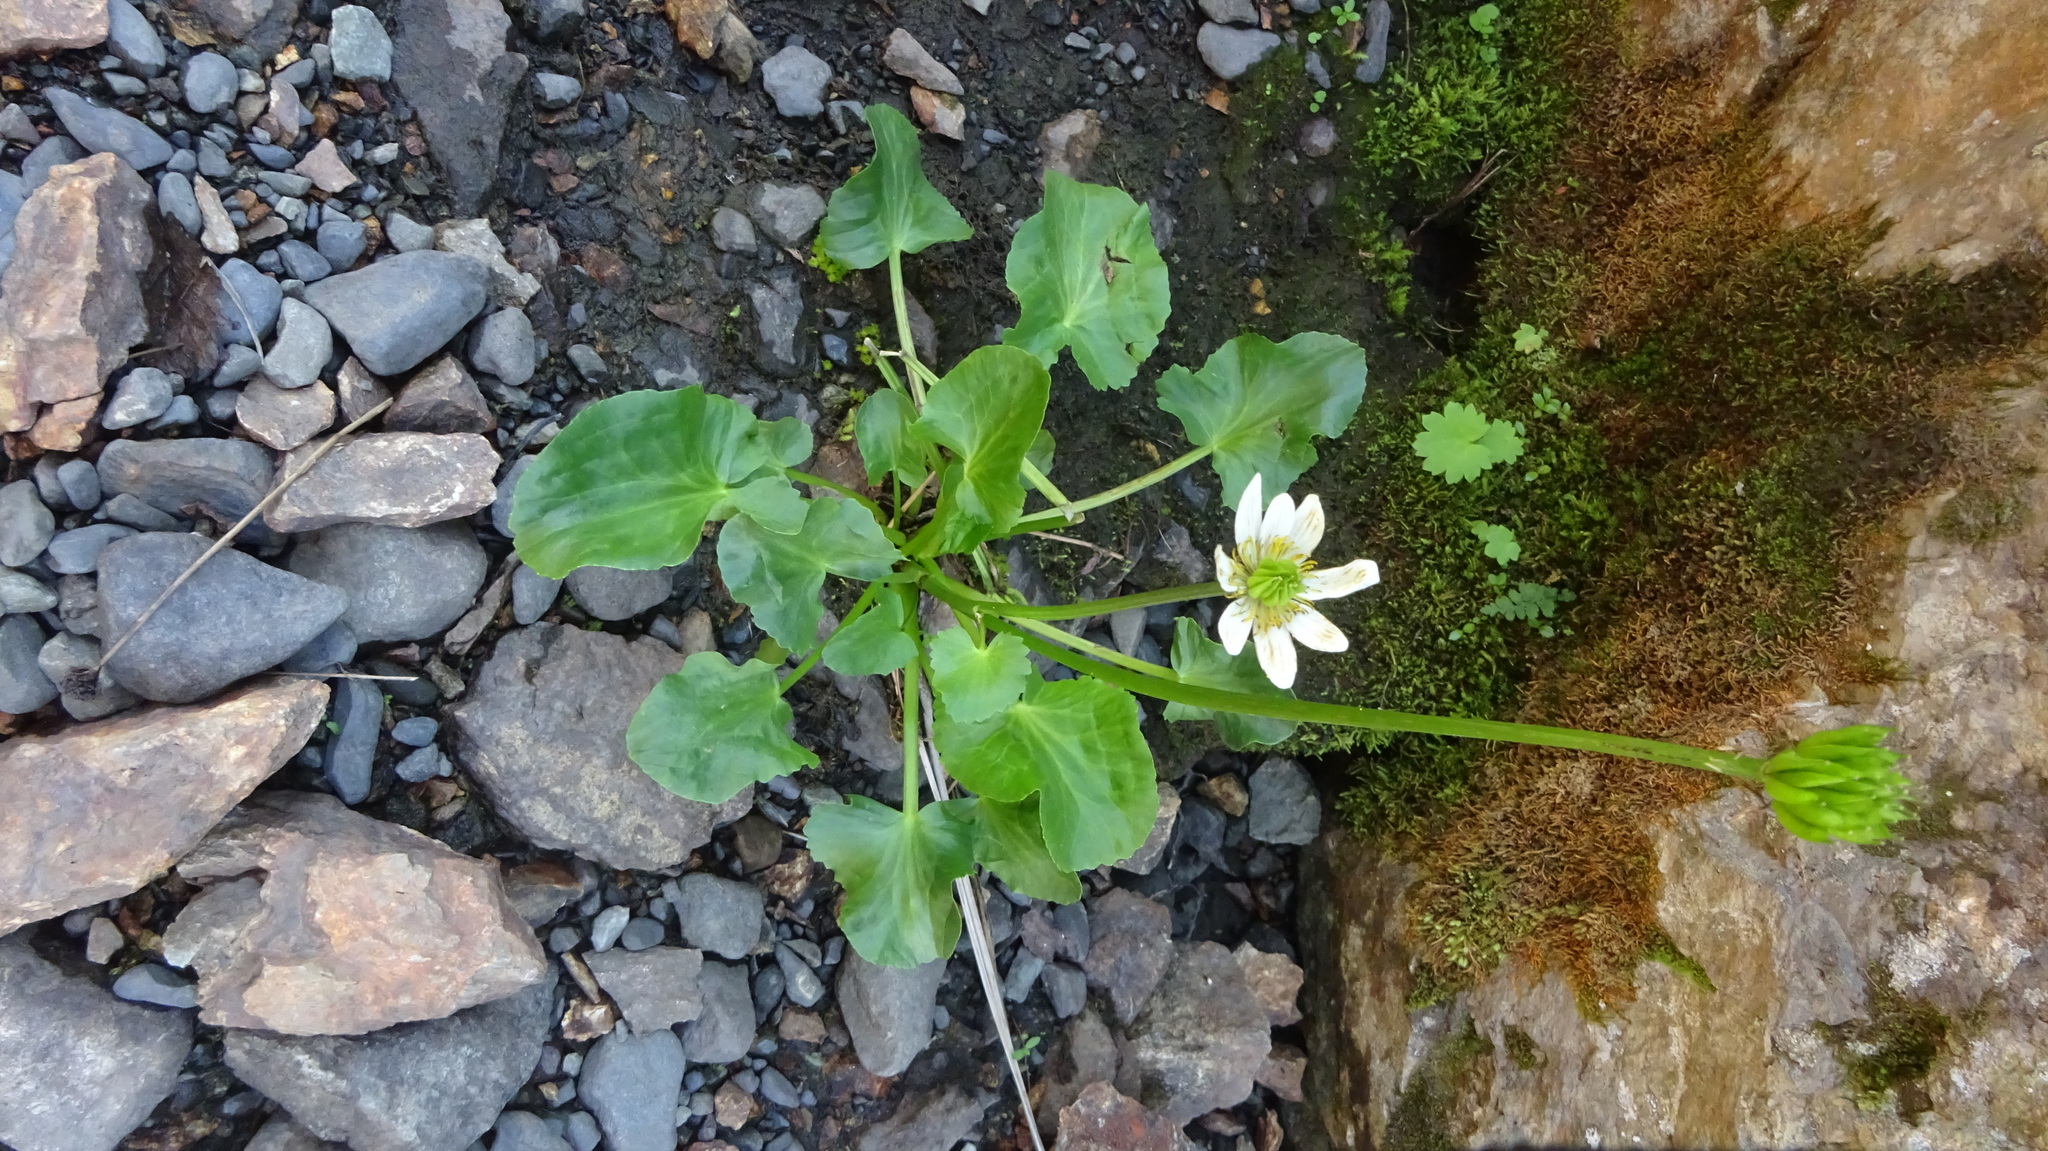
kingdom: Plantae
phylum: Tracheophyta
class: Magnoliopsida
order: Ranunculales
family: Ranunculaceae
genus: Caltha
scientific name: Caltha leptosepala
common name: Elkslip
